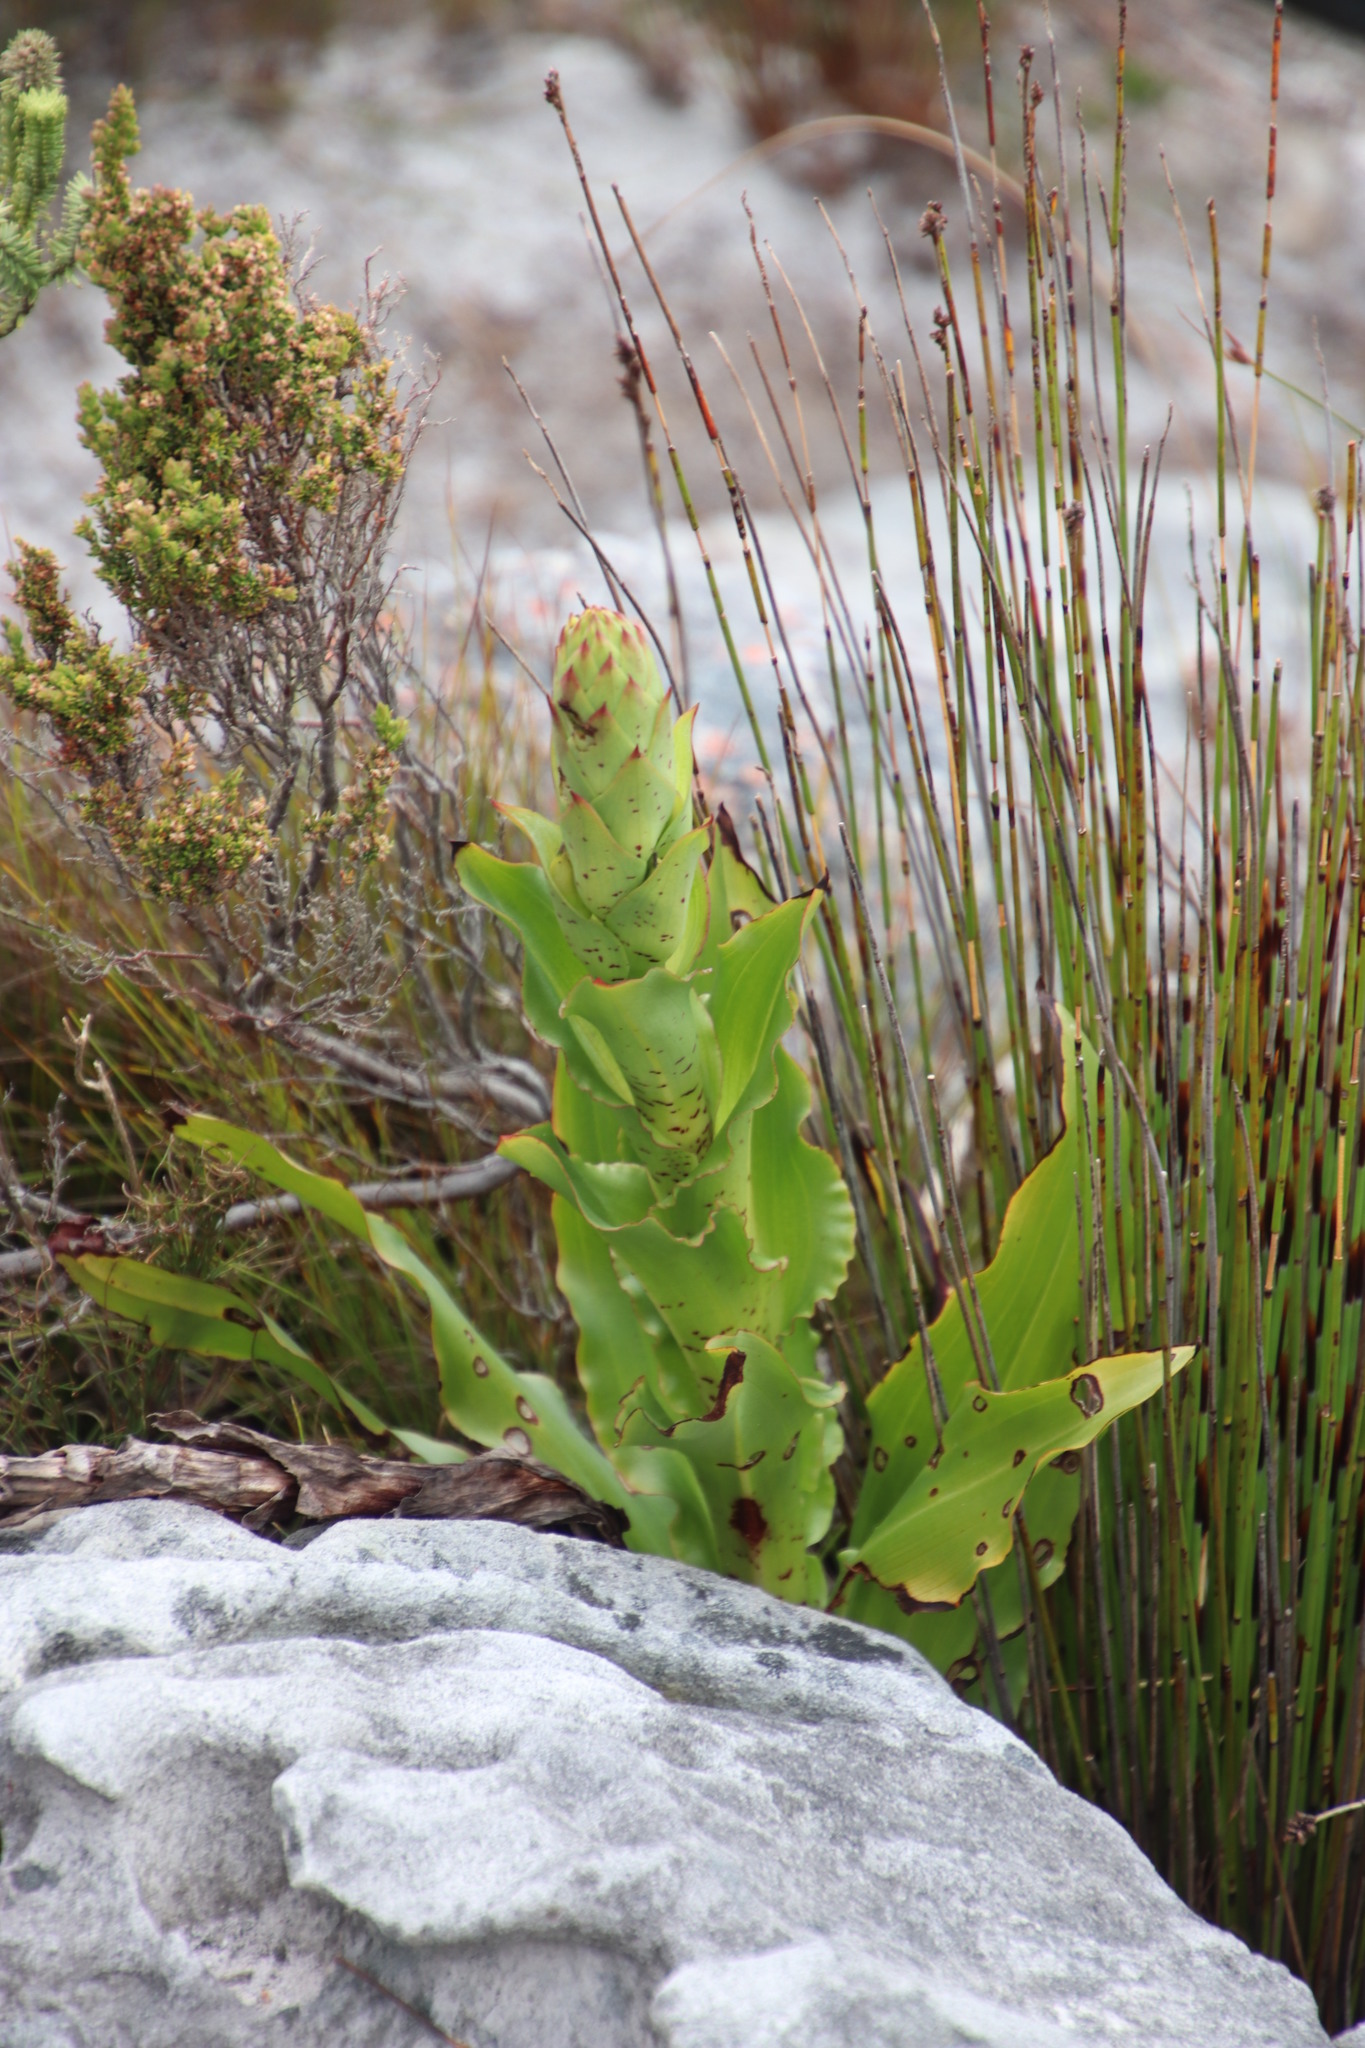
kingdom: Plantae
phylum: Tracheophyta
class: Liliopsida
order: Asparagales
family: Orchidaceae
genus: Disa
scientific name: Disa cornuta
